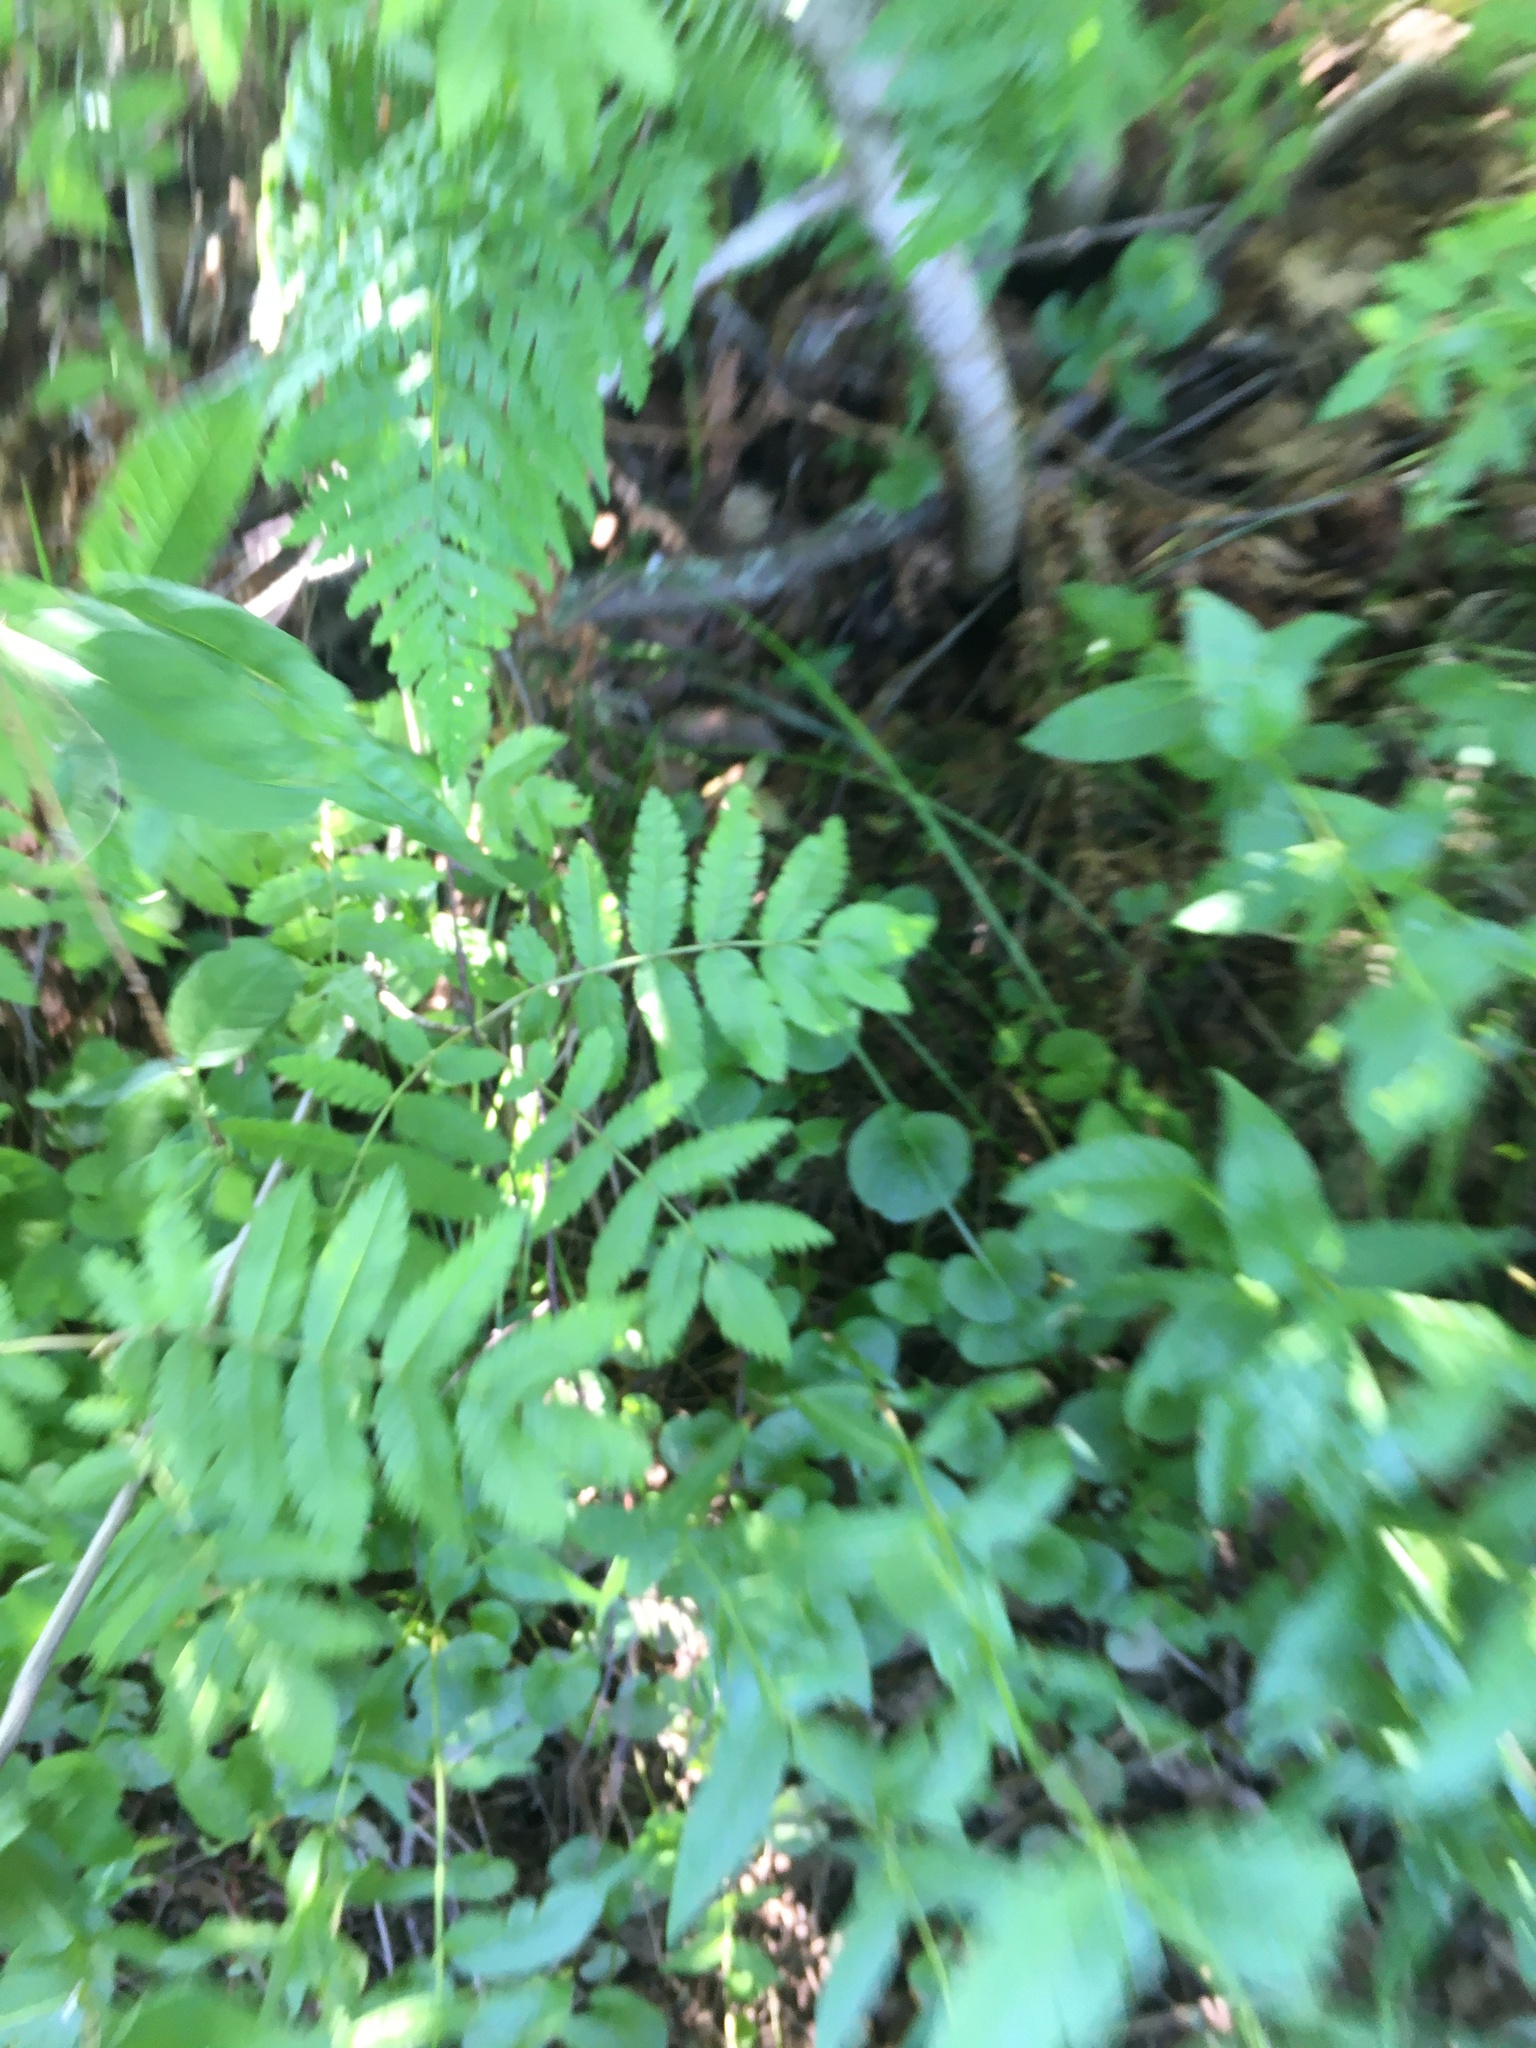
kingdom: Plantae
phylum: Tracheophyta
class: Magnoliopsida
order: Rosales
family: Rosaceae
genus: Sorbus
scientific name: Sorbus aucuparia
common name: Rowan
